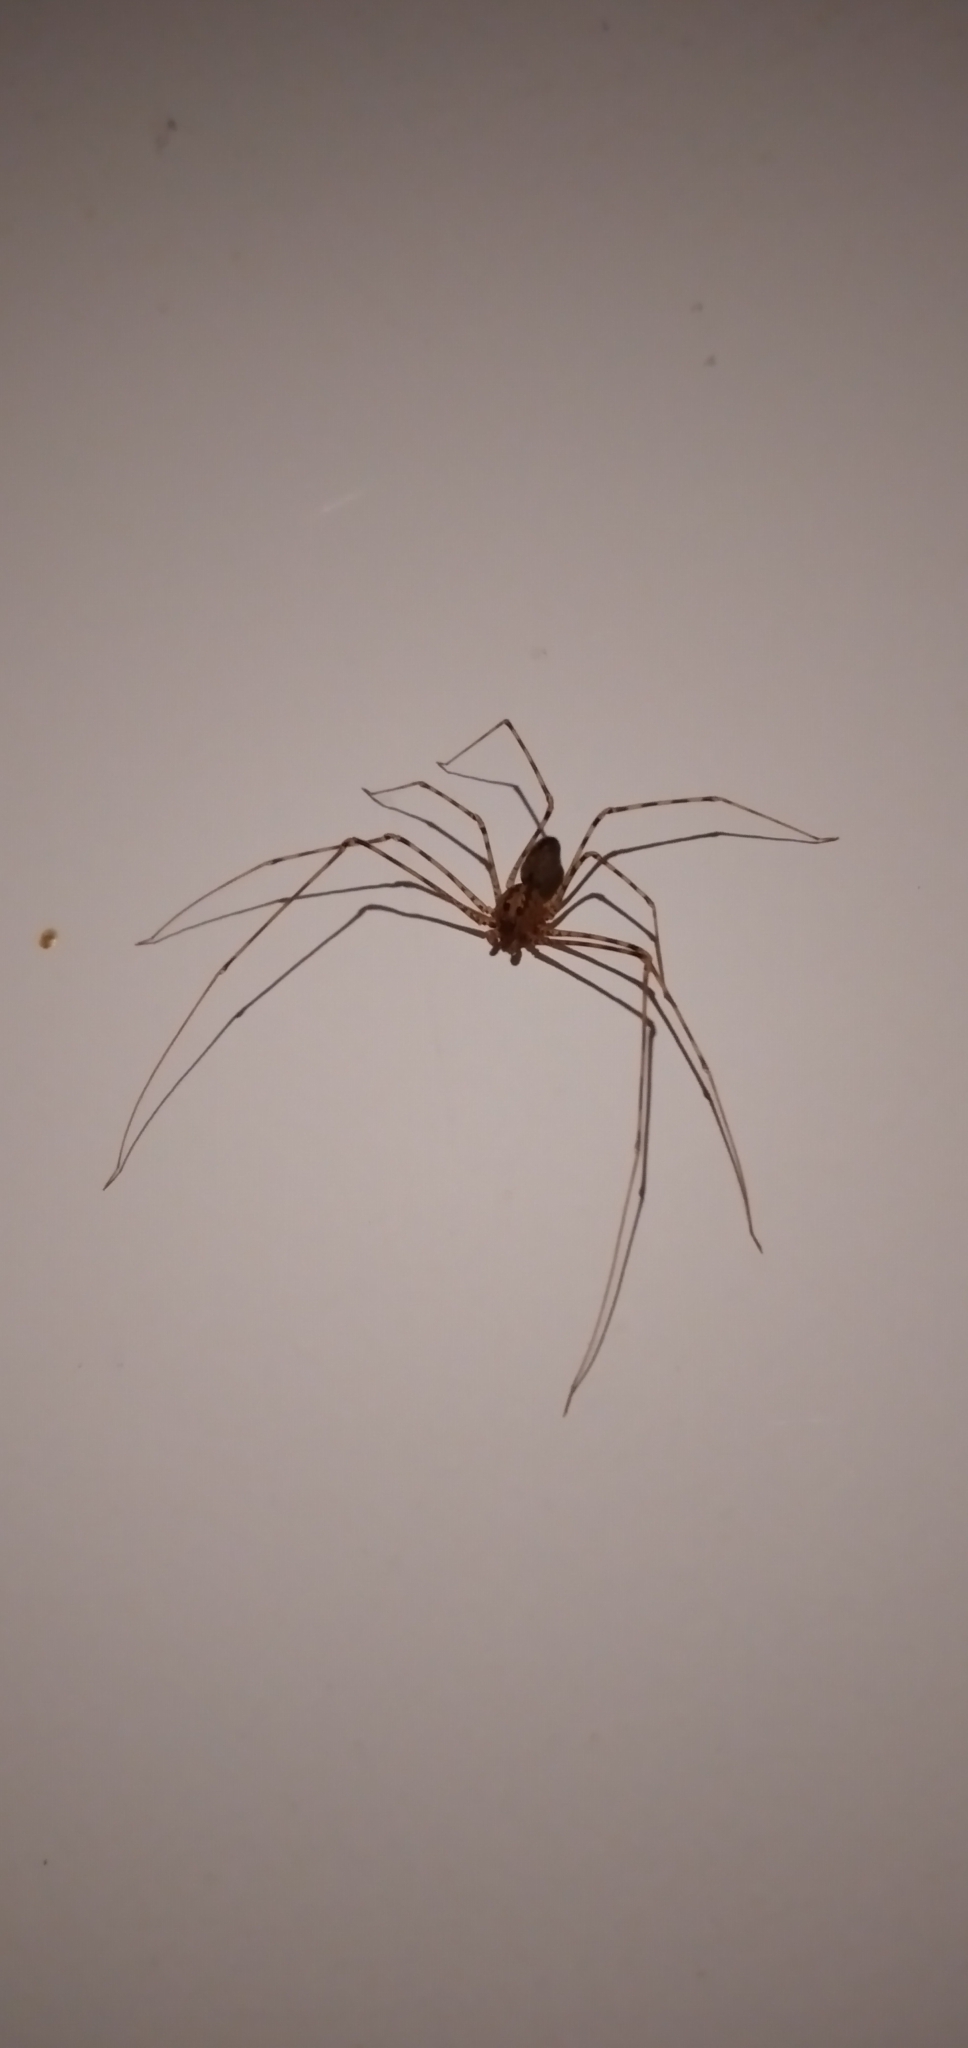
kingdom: Animalia
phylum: Arthropoda
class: Arachnida
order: Araneae
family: Scytodidae
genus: Scytodes
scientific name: Scytodes globula
